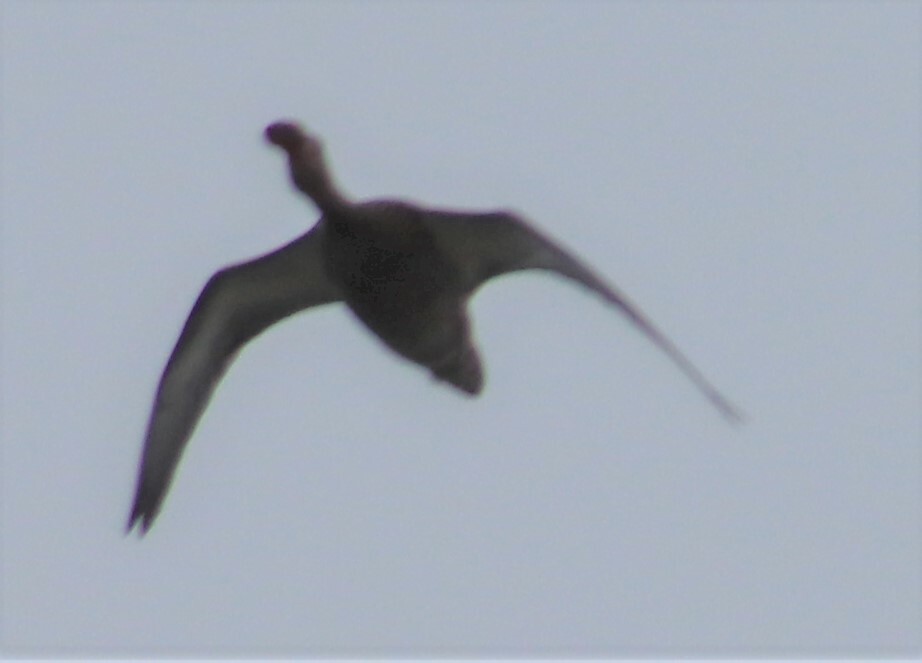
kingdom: Animalia
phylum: Chordata
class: Aves
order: Anseriformes
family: Anatidae
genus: Spatula
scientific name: Spatula clypeata
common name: Northern shoveler
